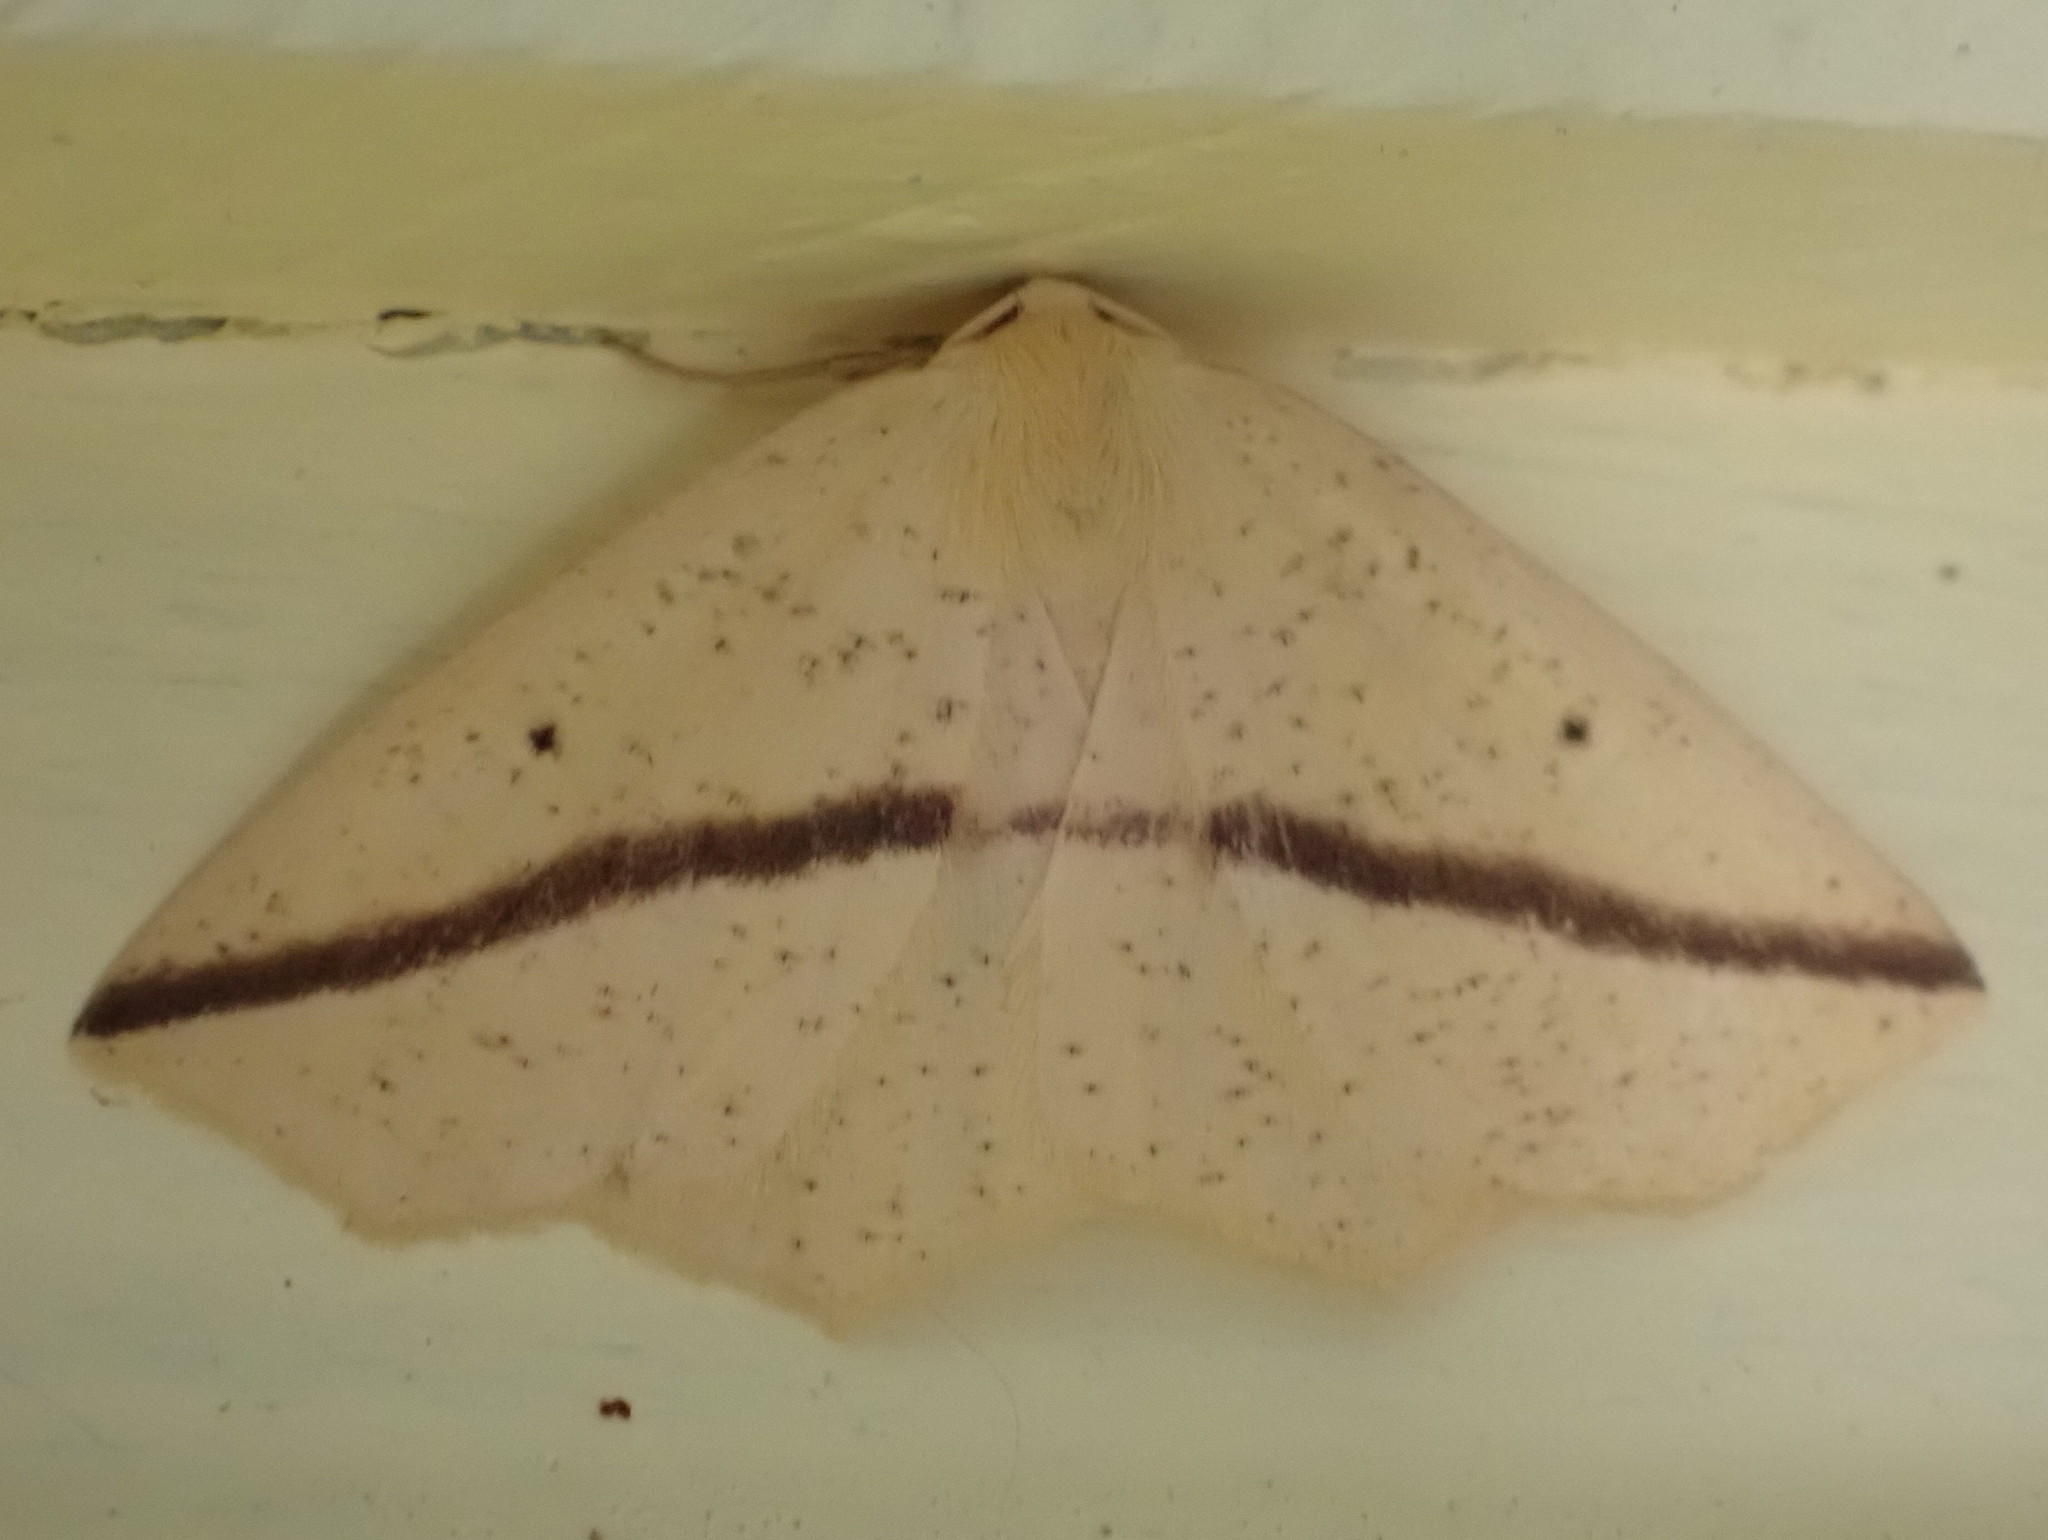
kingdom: Animalia
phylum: Arthropoda
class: Insecta
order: Lepidoptera
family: Geometridae
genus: Tetracis
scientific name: Tetracis crocallata
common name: Yellow slant-line
